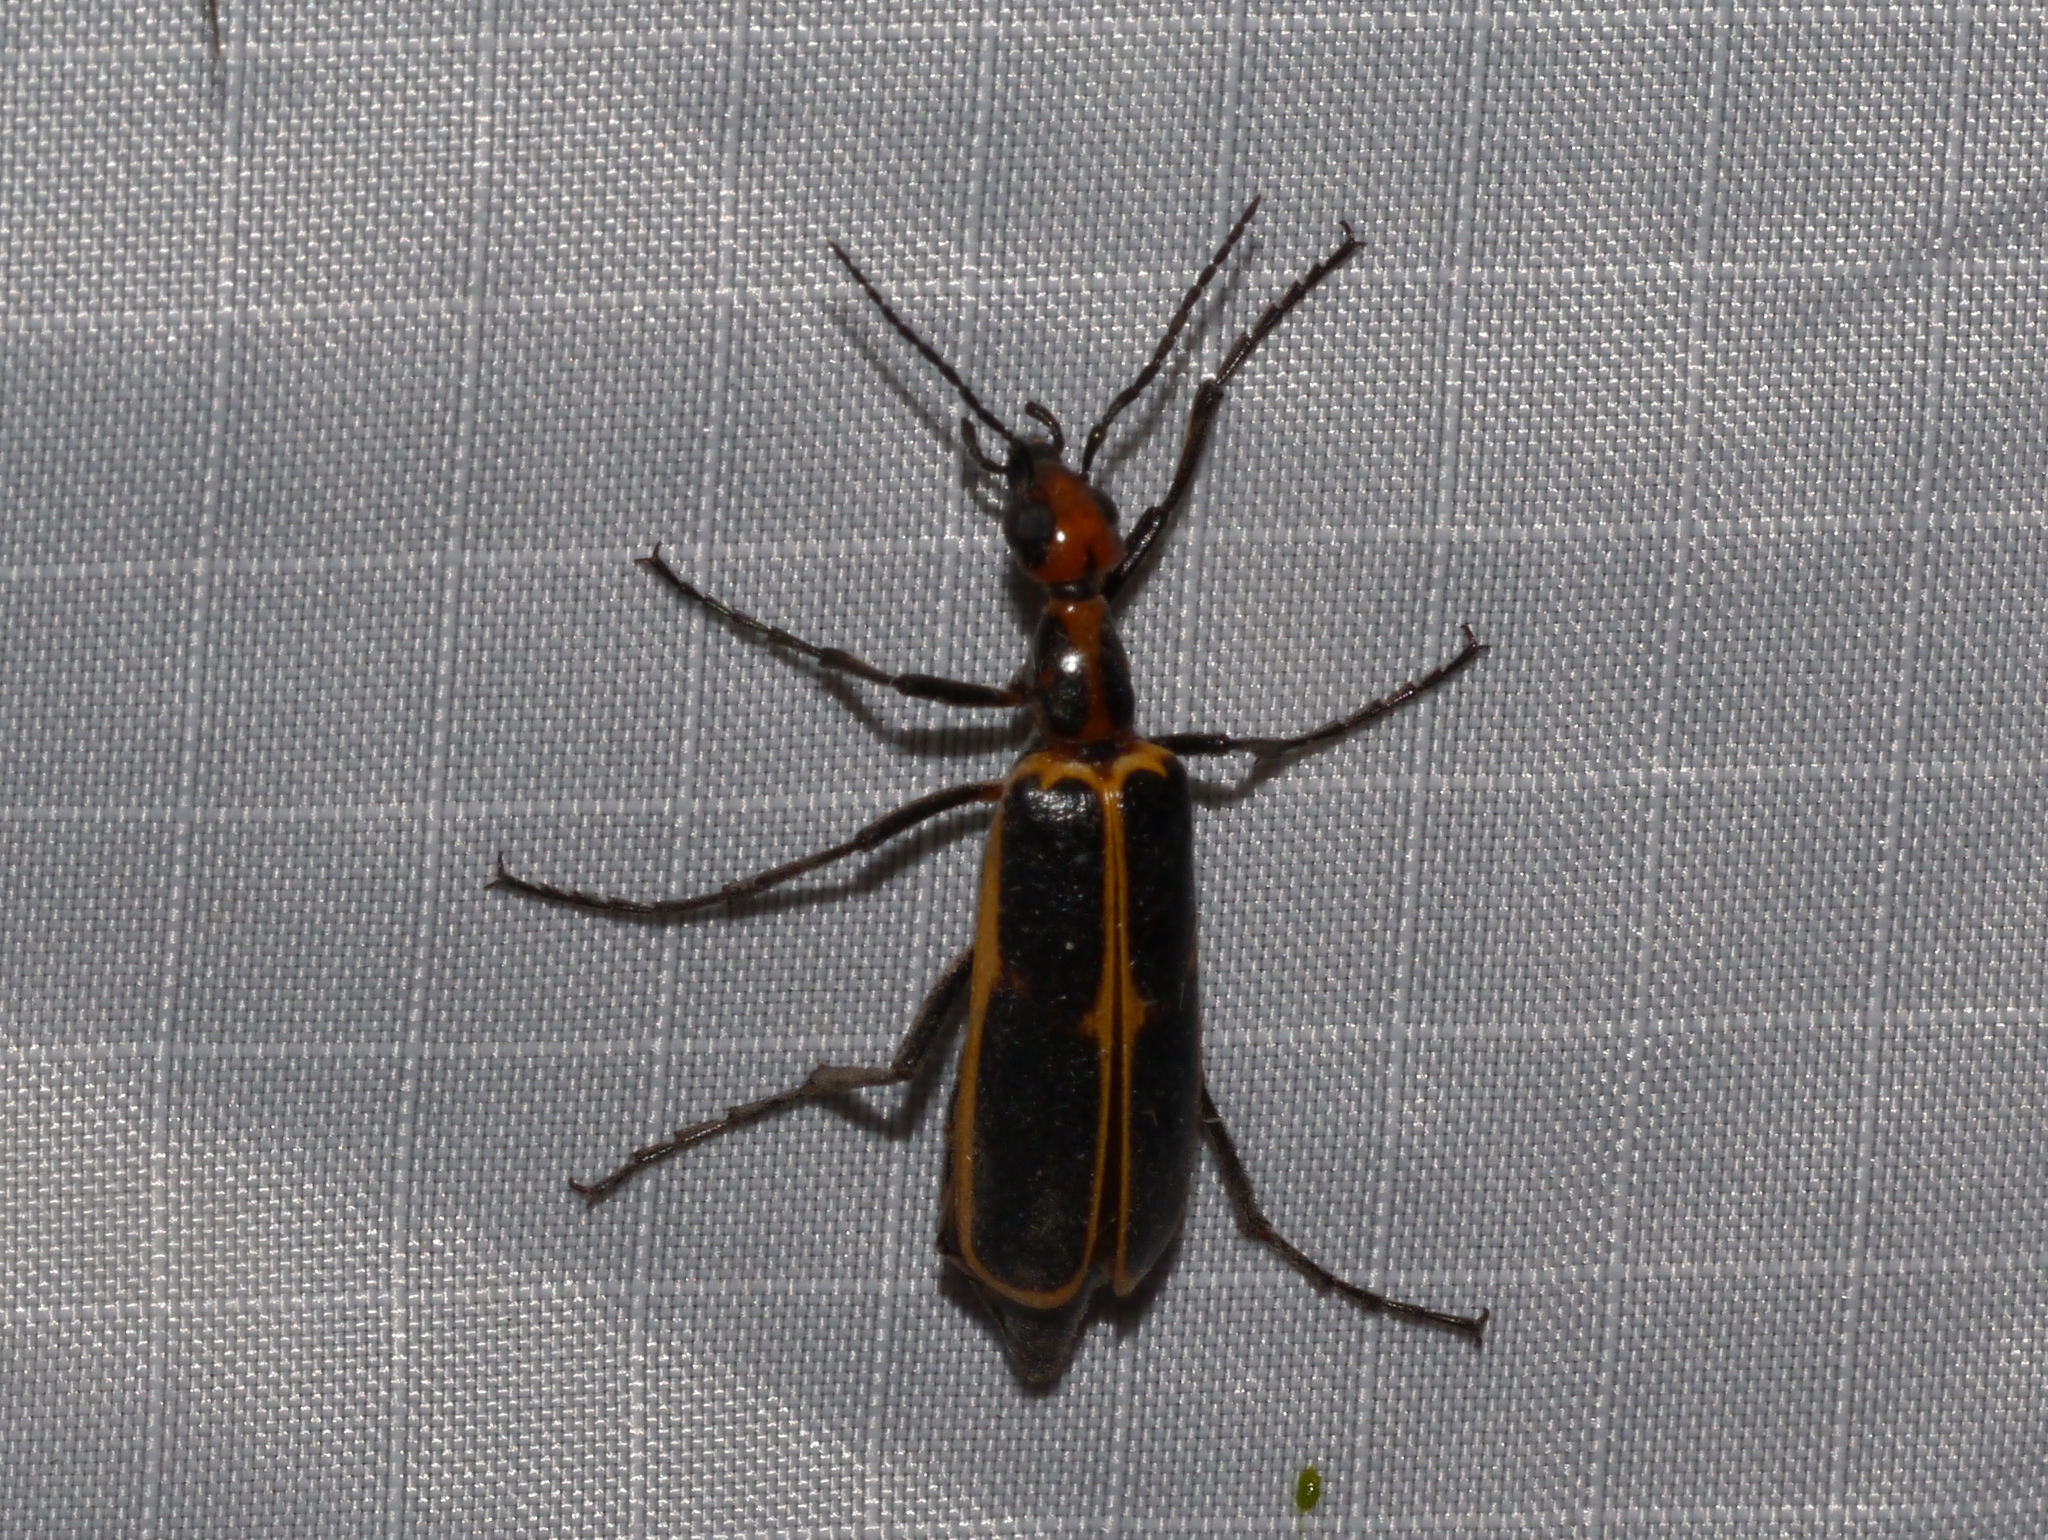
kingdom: Animalia
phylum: Arthropoda
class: Insecta
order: Coleoptera
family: Meloidae
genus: Pyrota
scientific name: Pyrota
